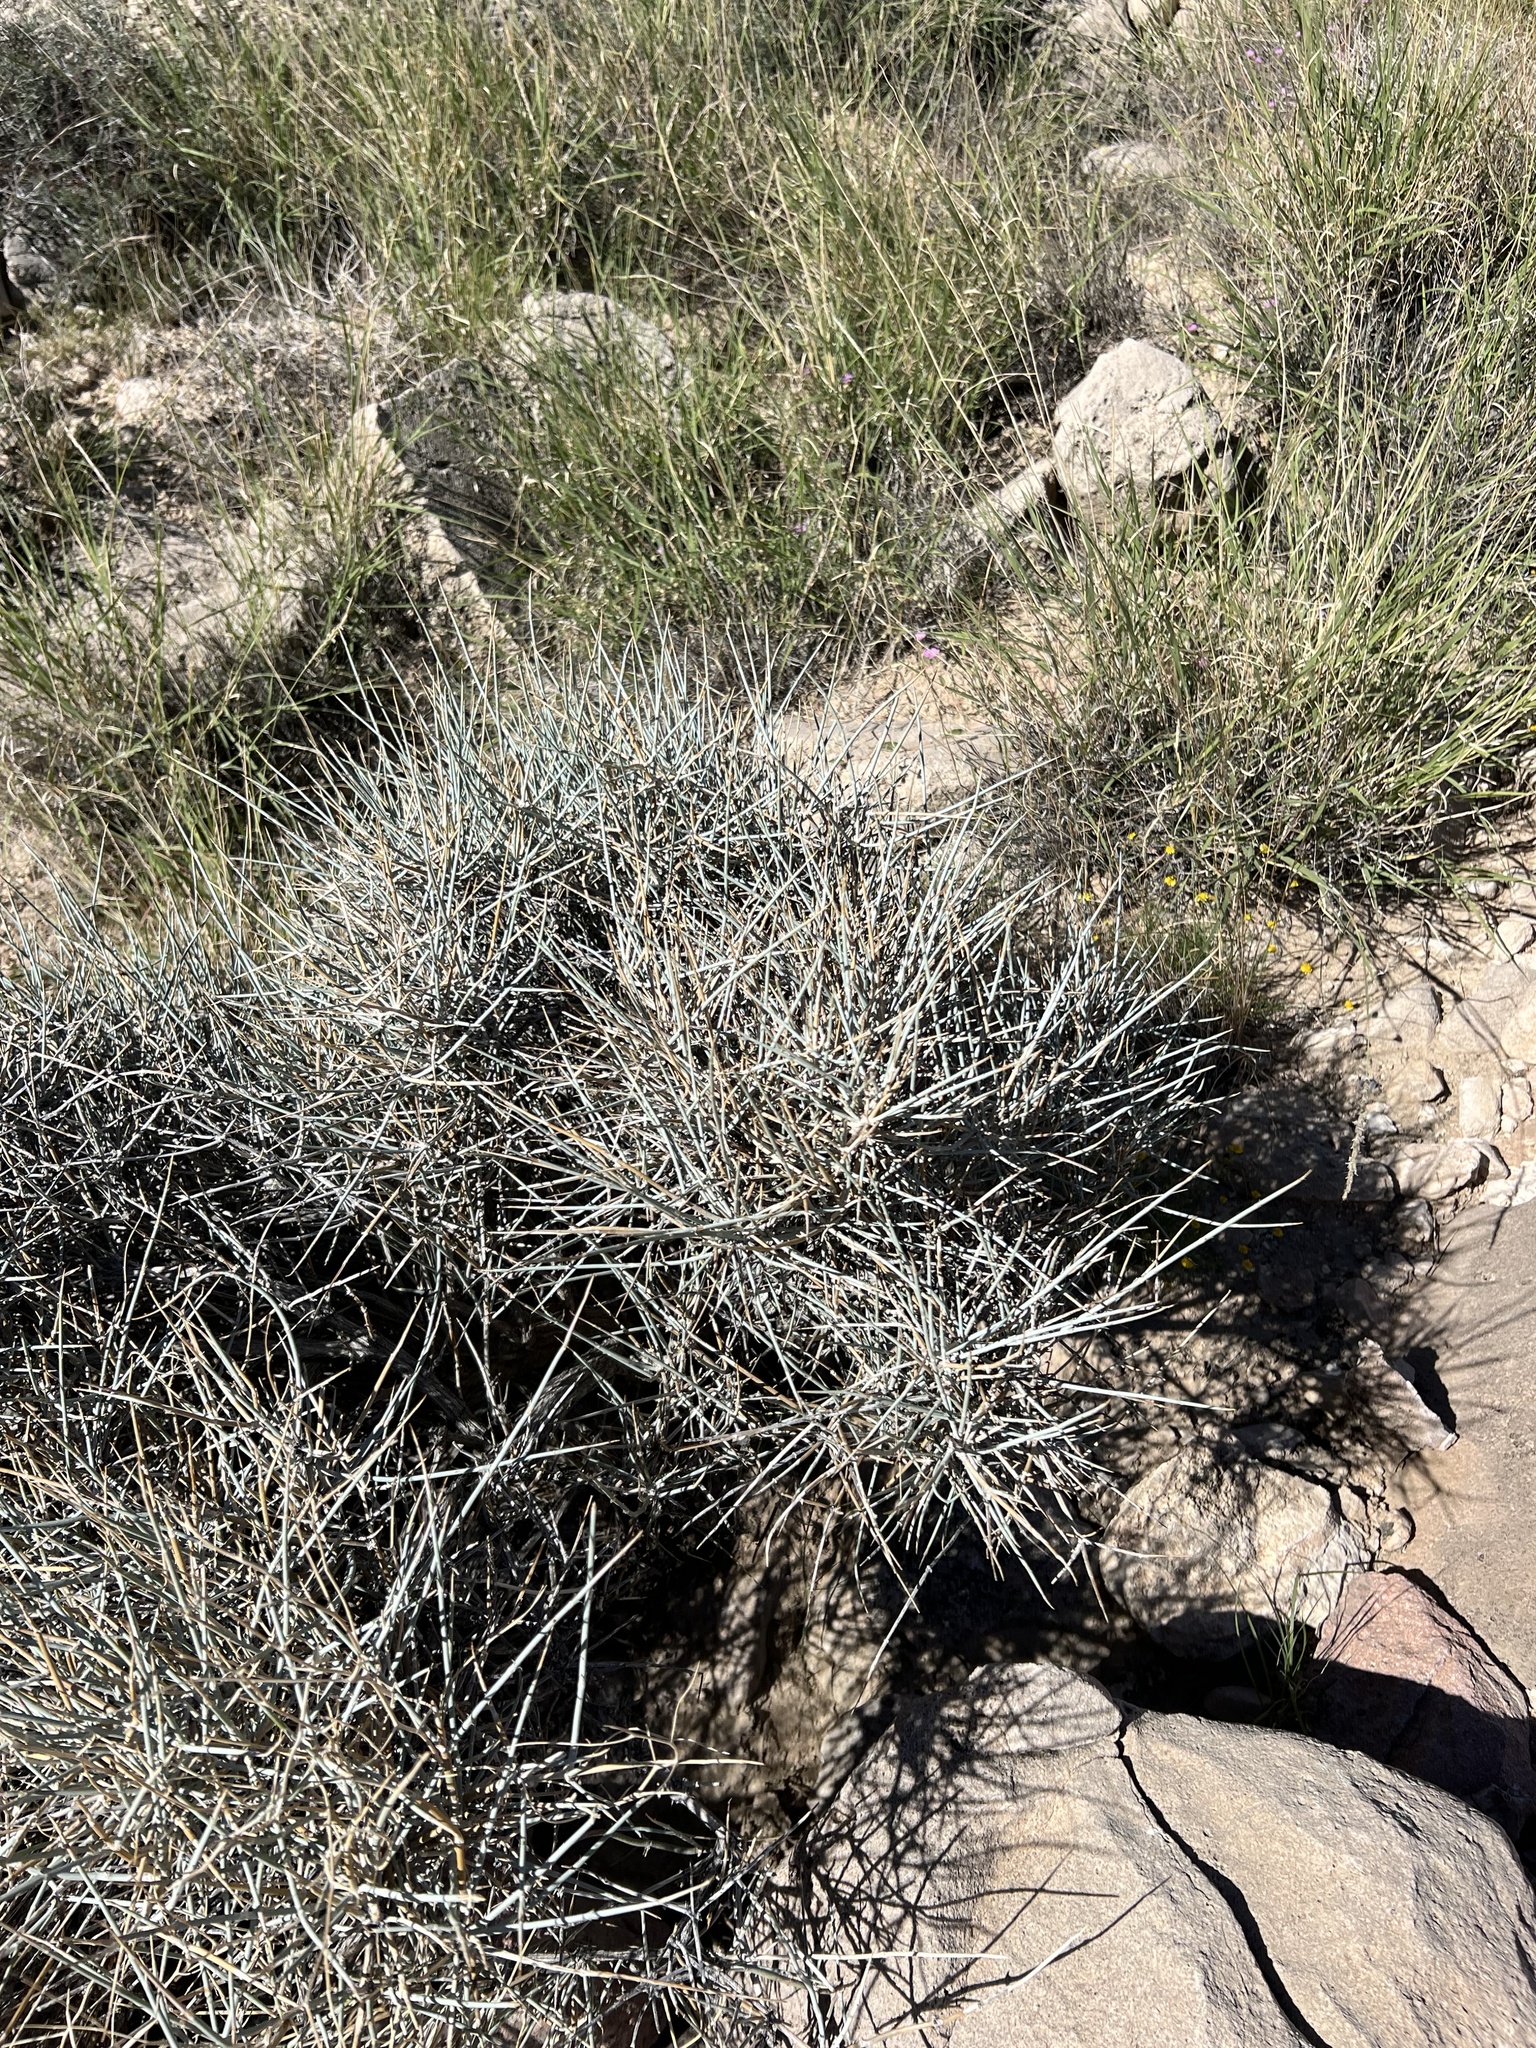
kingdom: Plantae
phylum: Tracheophyta
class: Gnetopsida
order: Ephedrales
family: Ephedraceae
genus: Ephedra
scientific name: Ephedra nevadensis
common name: Gray ephedra
